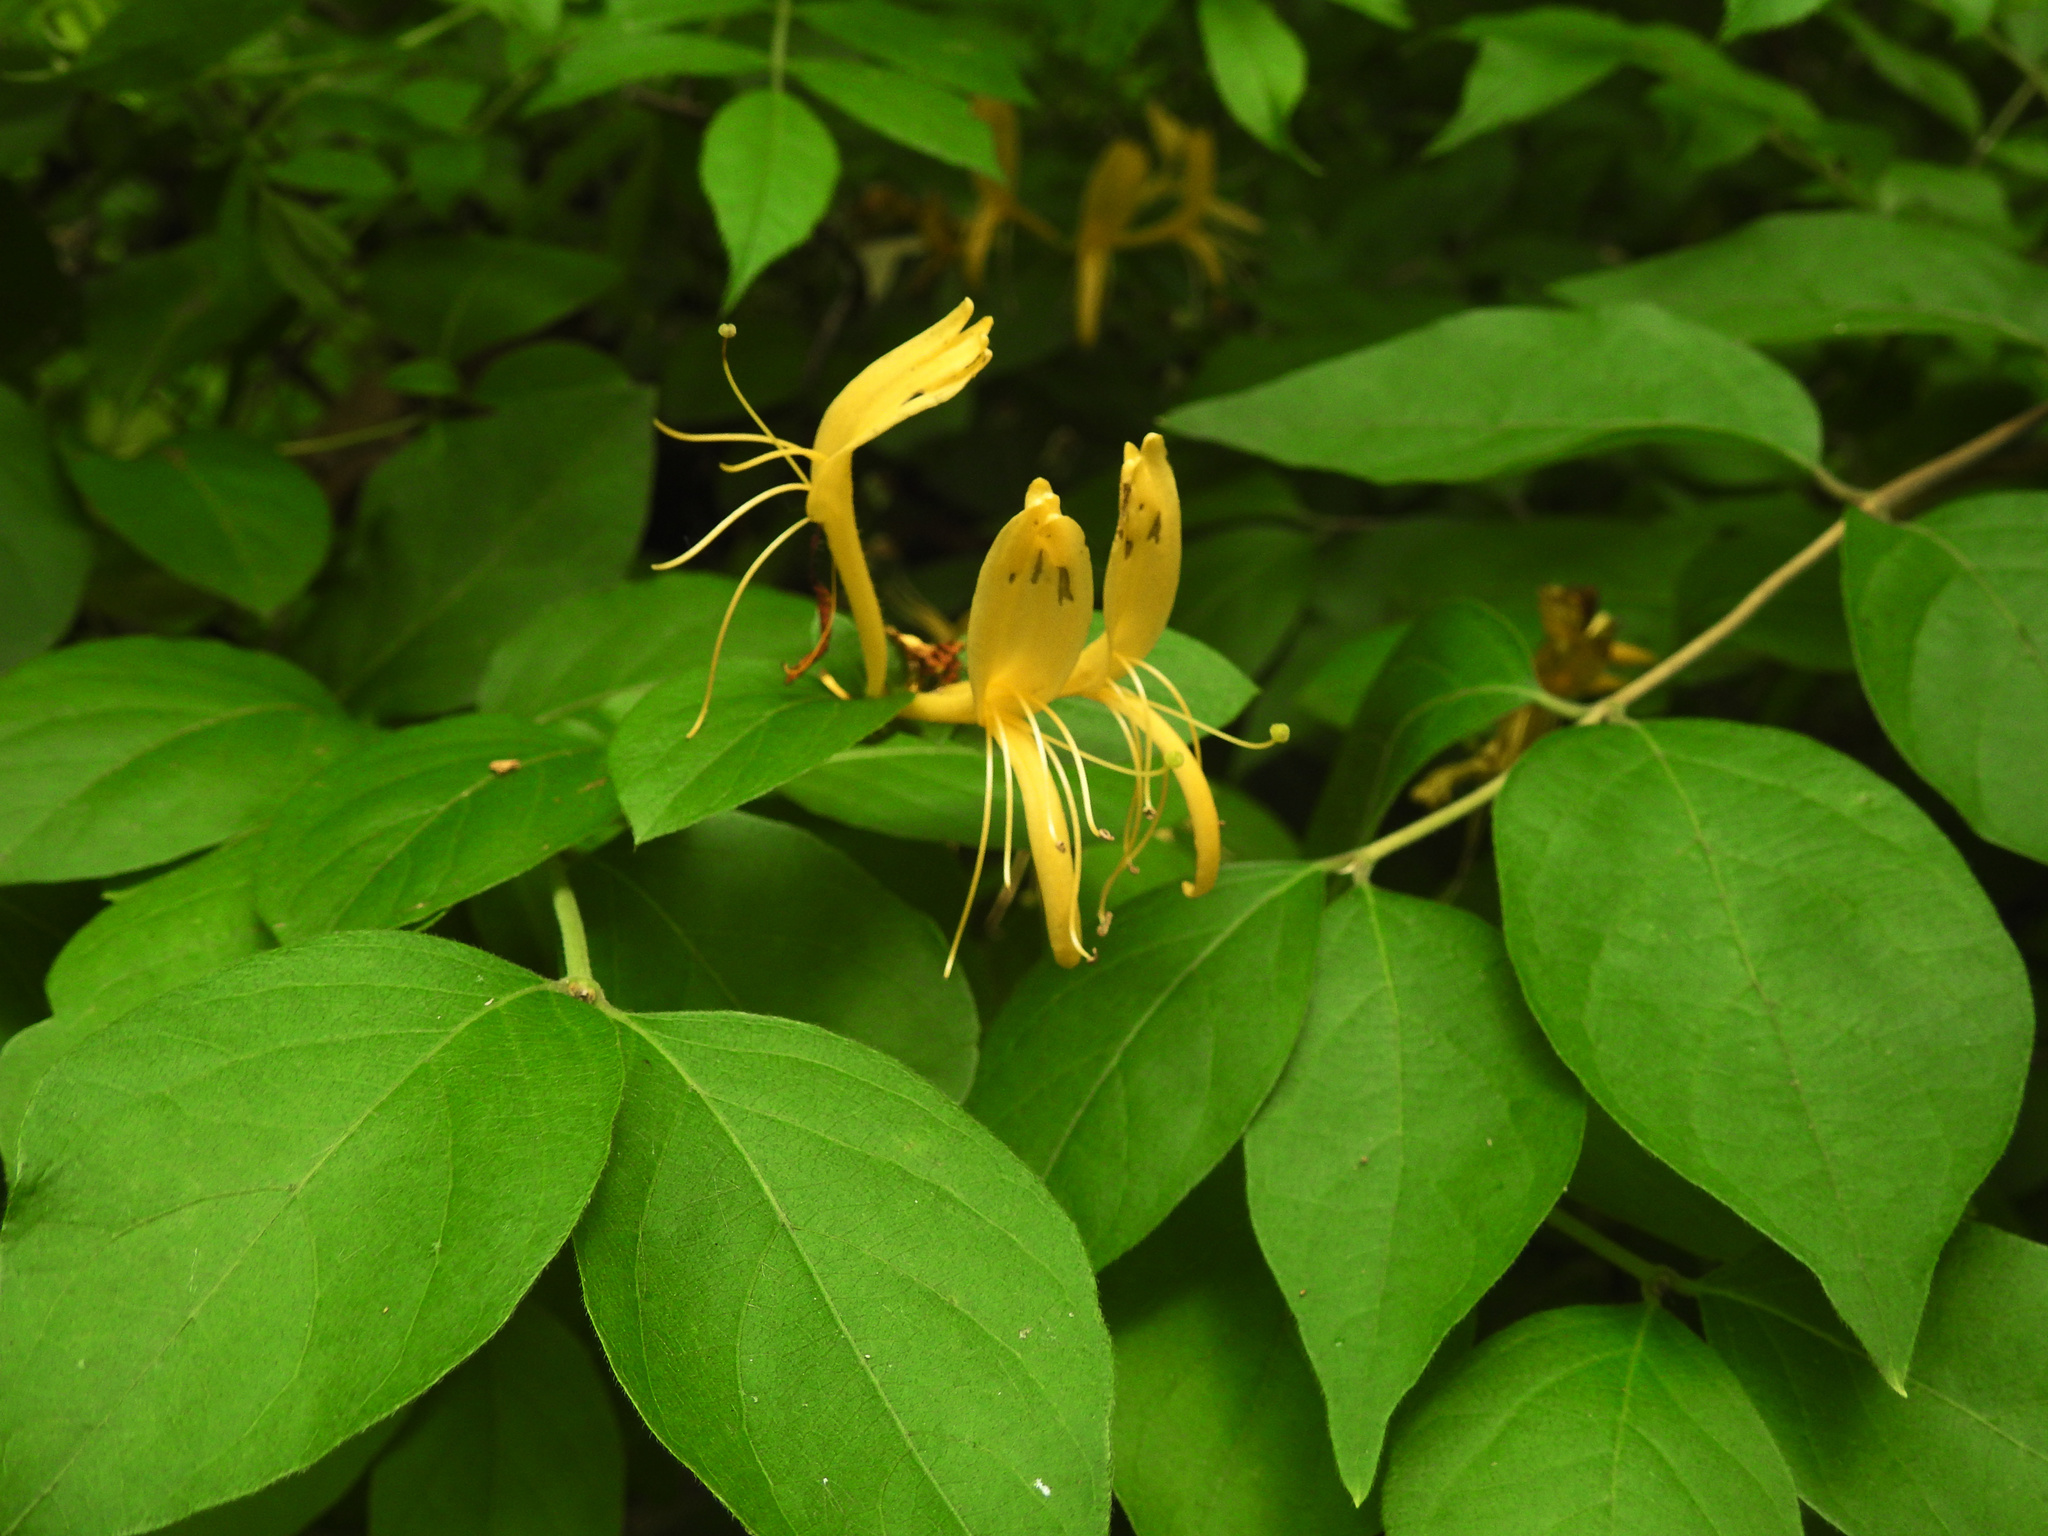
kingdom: Plantae
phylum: Tracheophyta
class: Magnoliopsida
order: Dipsacales
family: Caprifoliaceae
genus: Lonicera
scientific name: Lonicera japonica
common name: Japanese honeysuckle
